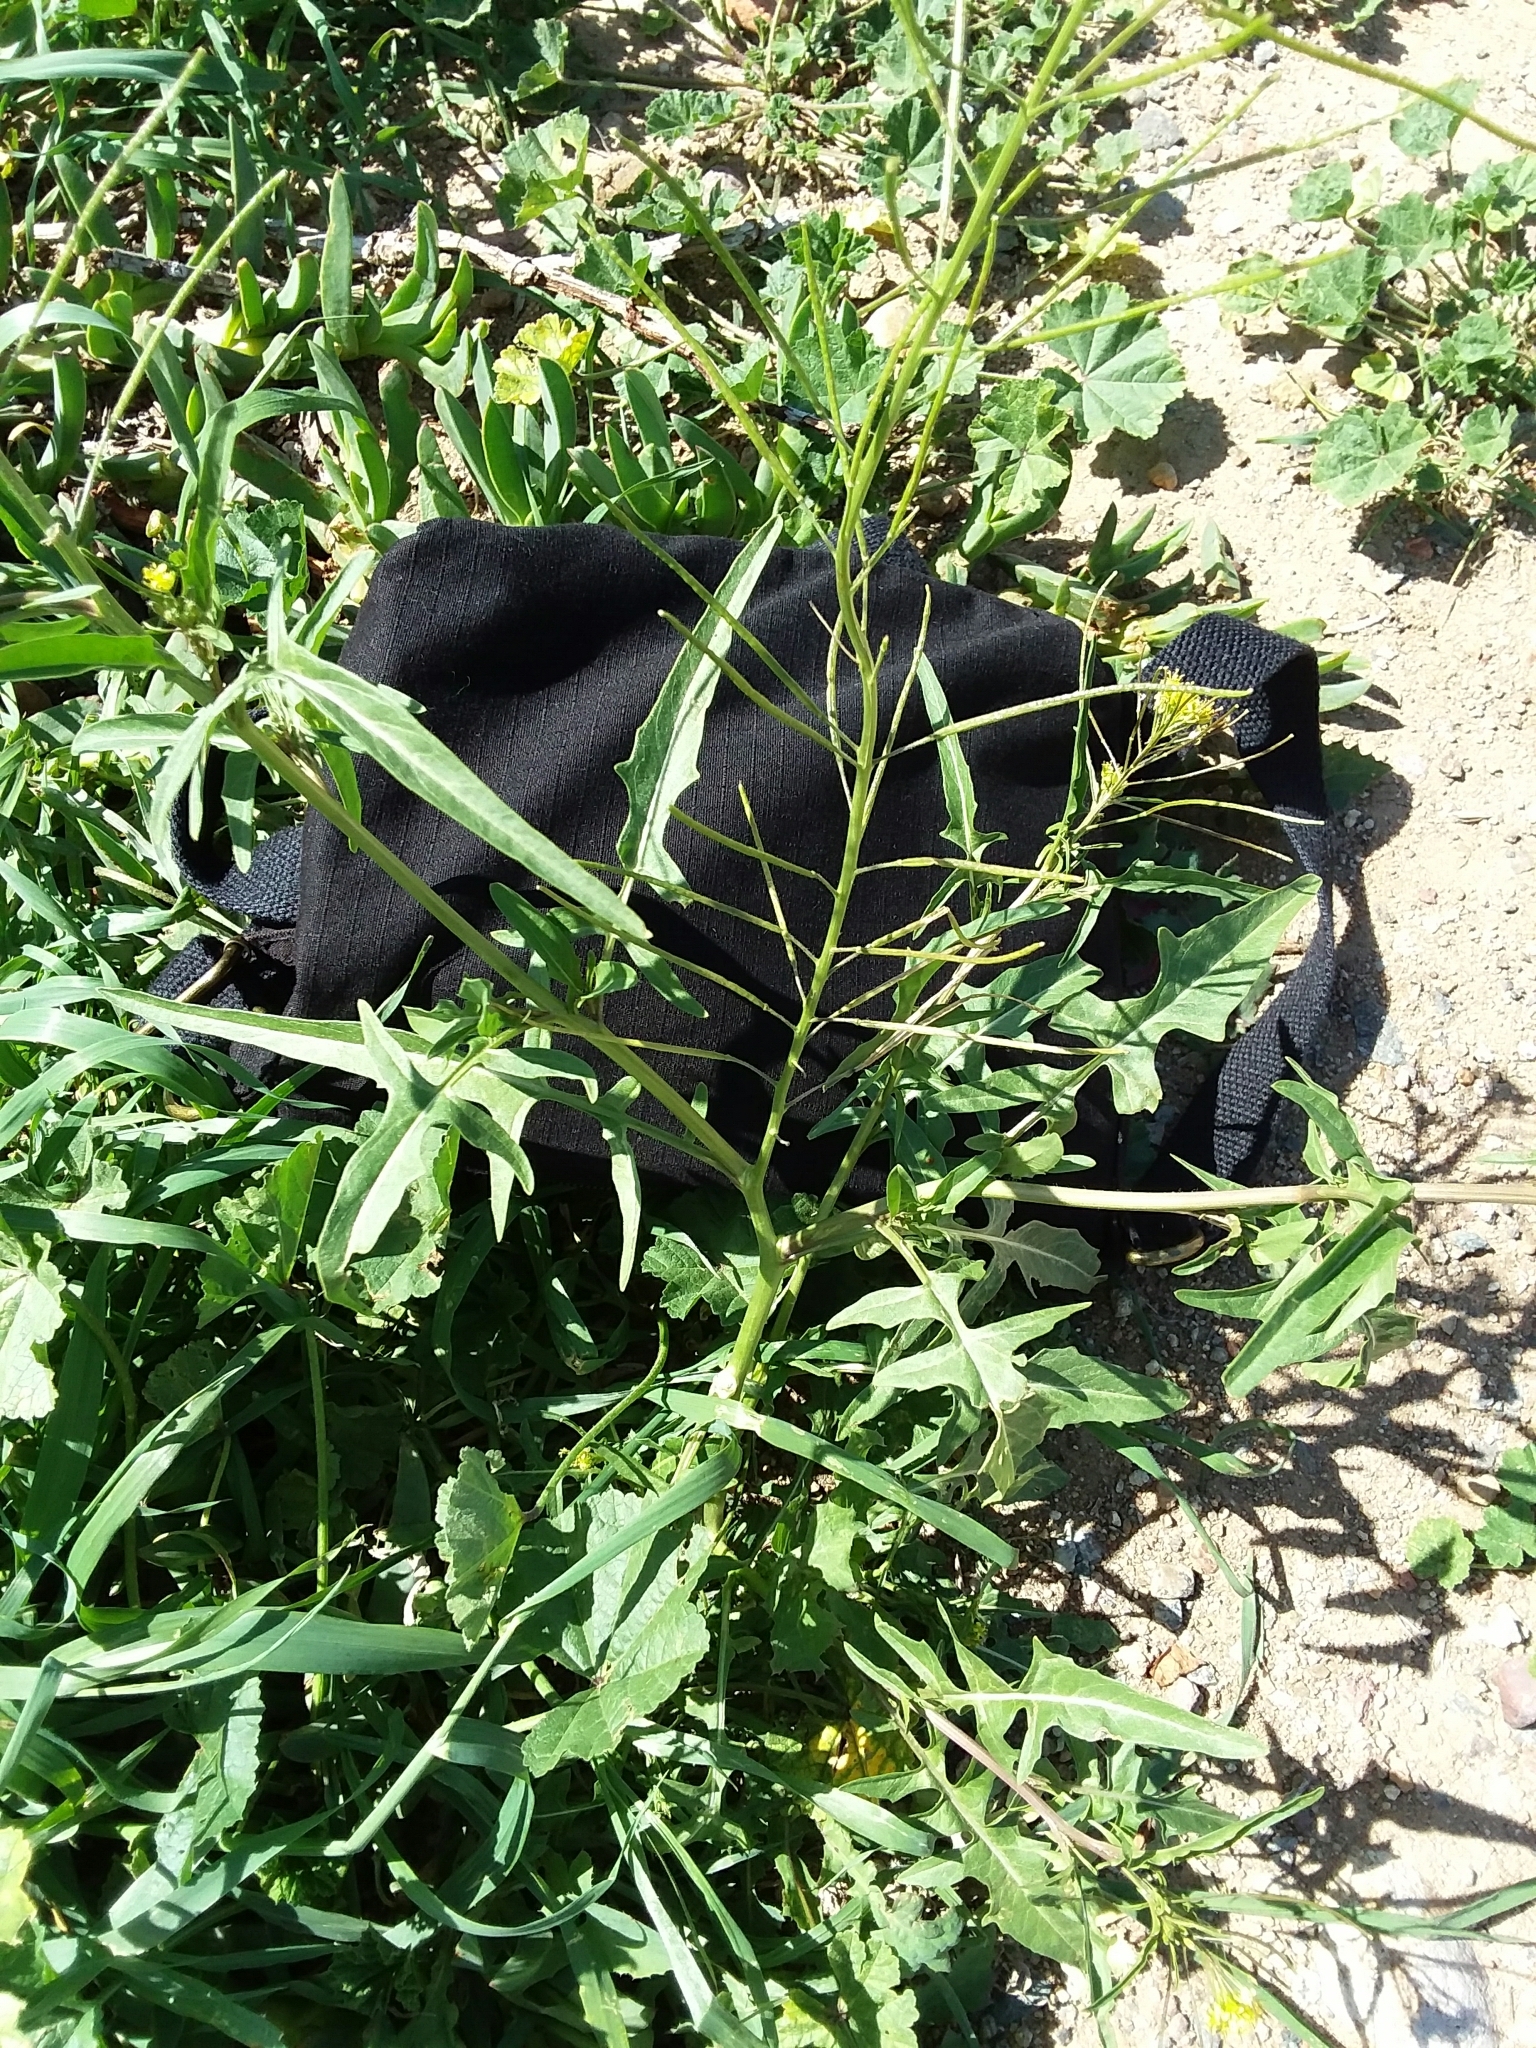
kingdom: Plantae
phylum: Tracheophyta
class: Magnoliopsida
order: Brassicales
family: Brassicaceae
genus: Sisymbrium
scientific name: Sisymbrium irio
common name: London rocket
